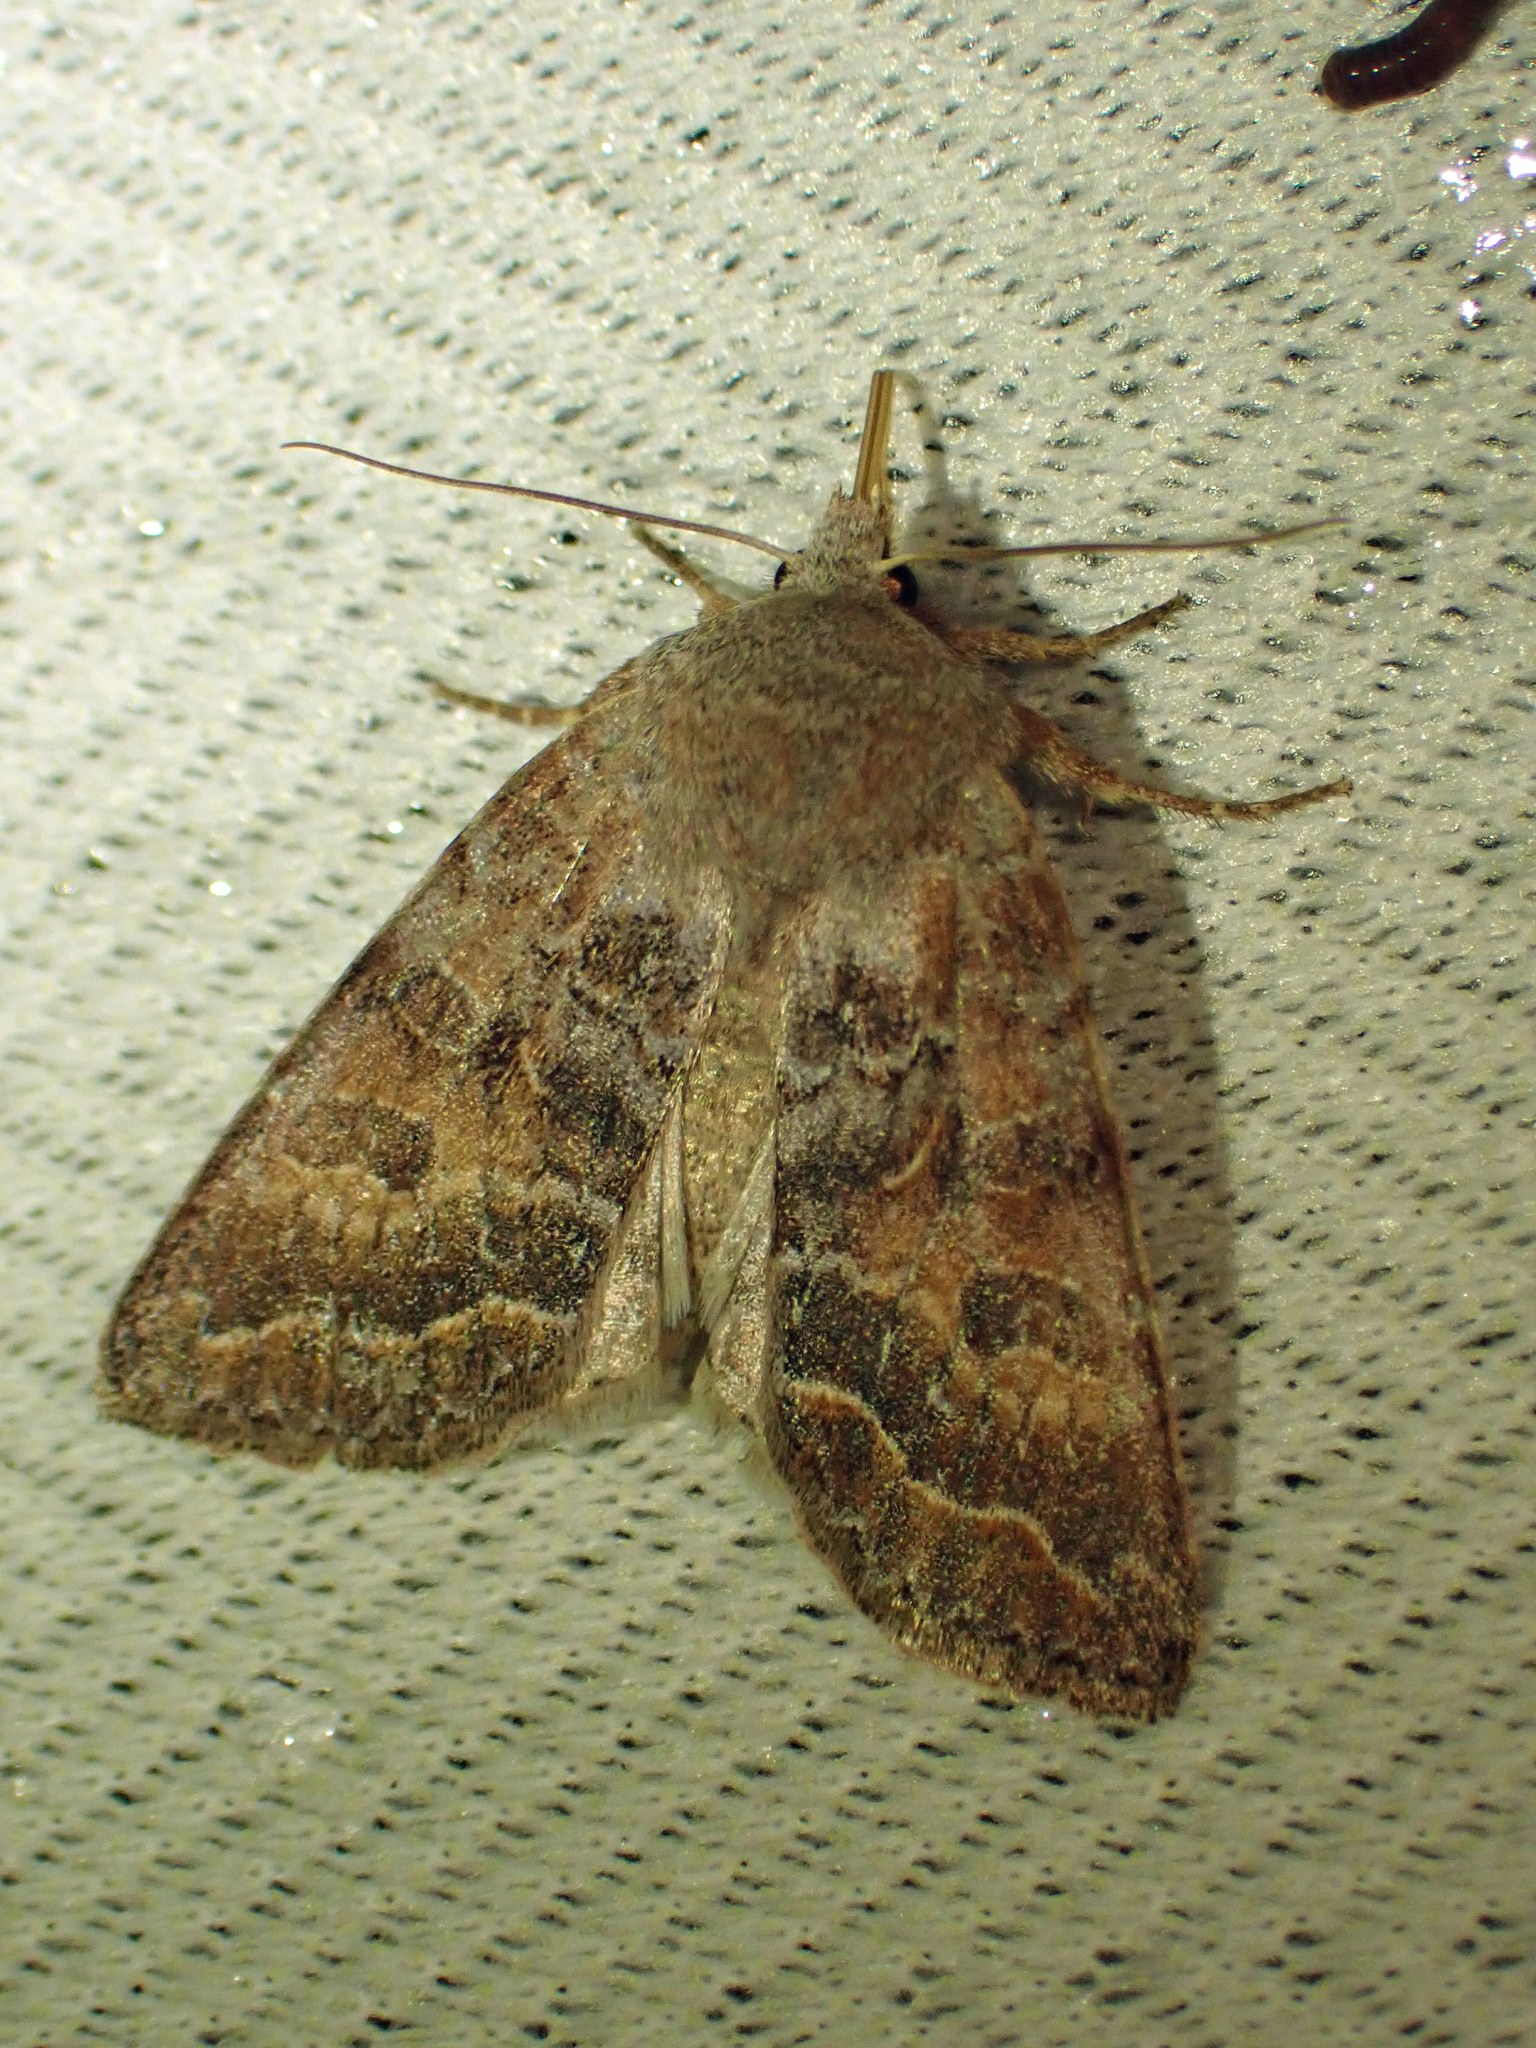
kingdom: Animalia
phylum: Arthropoda
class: Insecta
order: Lepidoptera
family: Noctuidae
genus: Orthosia
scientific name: Orthosia revicta
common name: Rusty whitesided caterpillar
